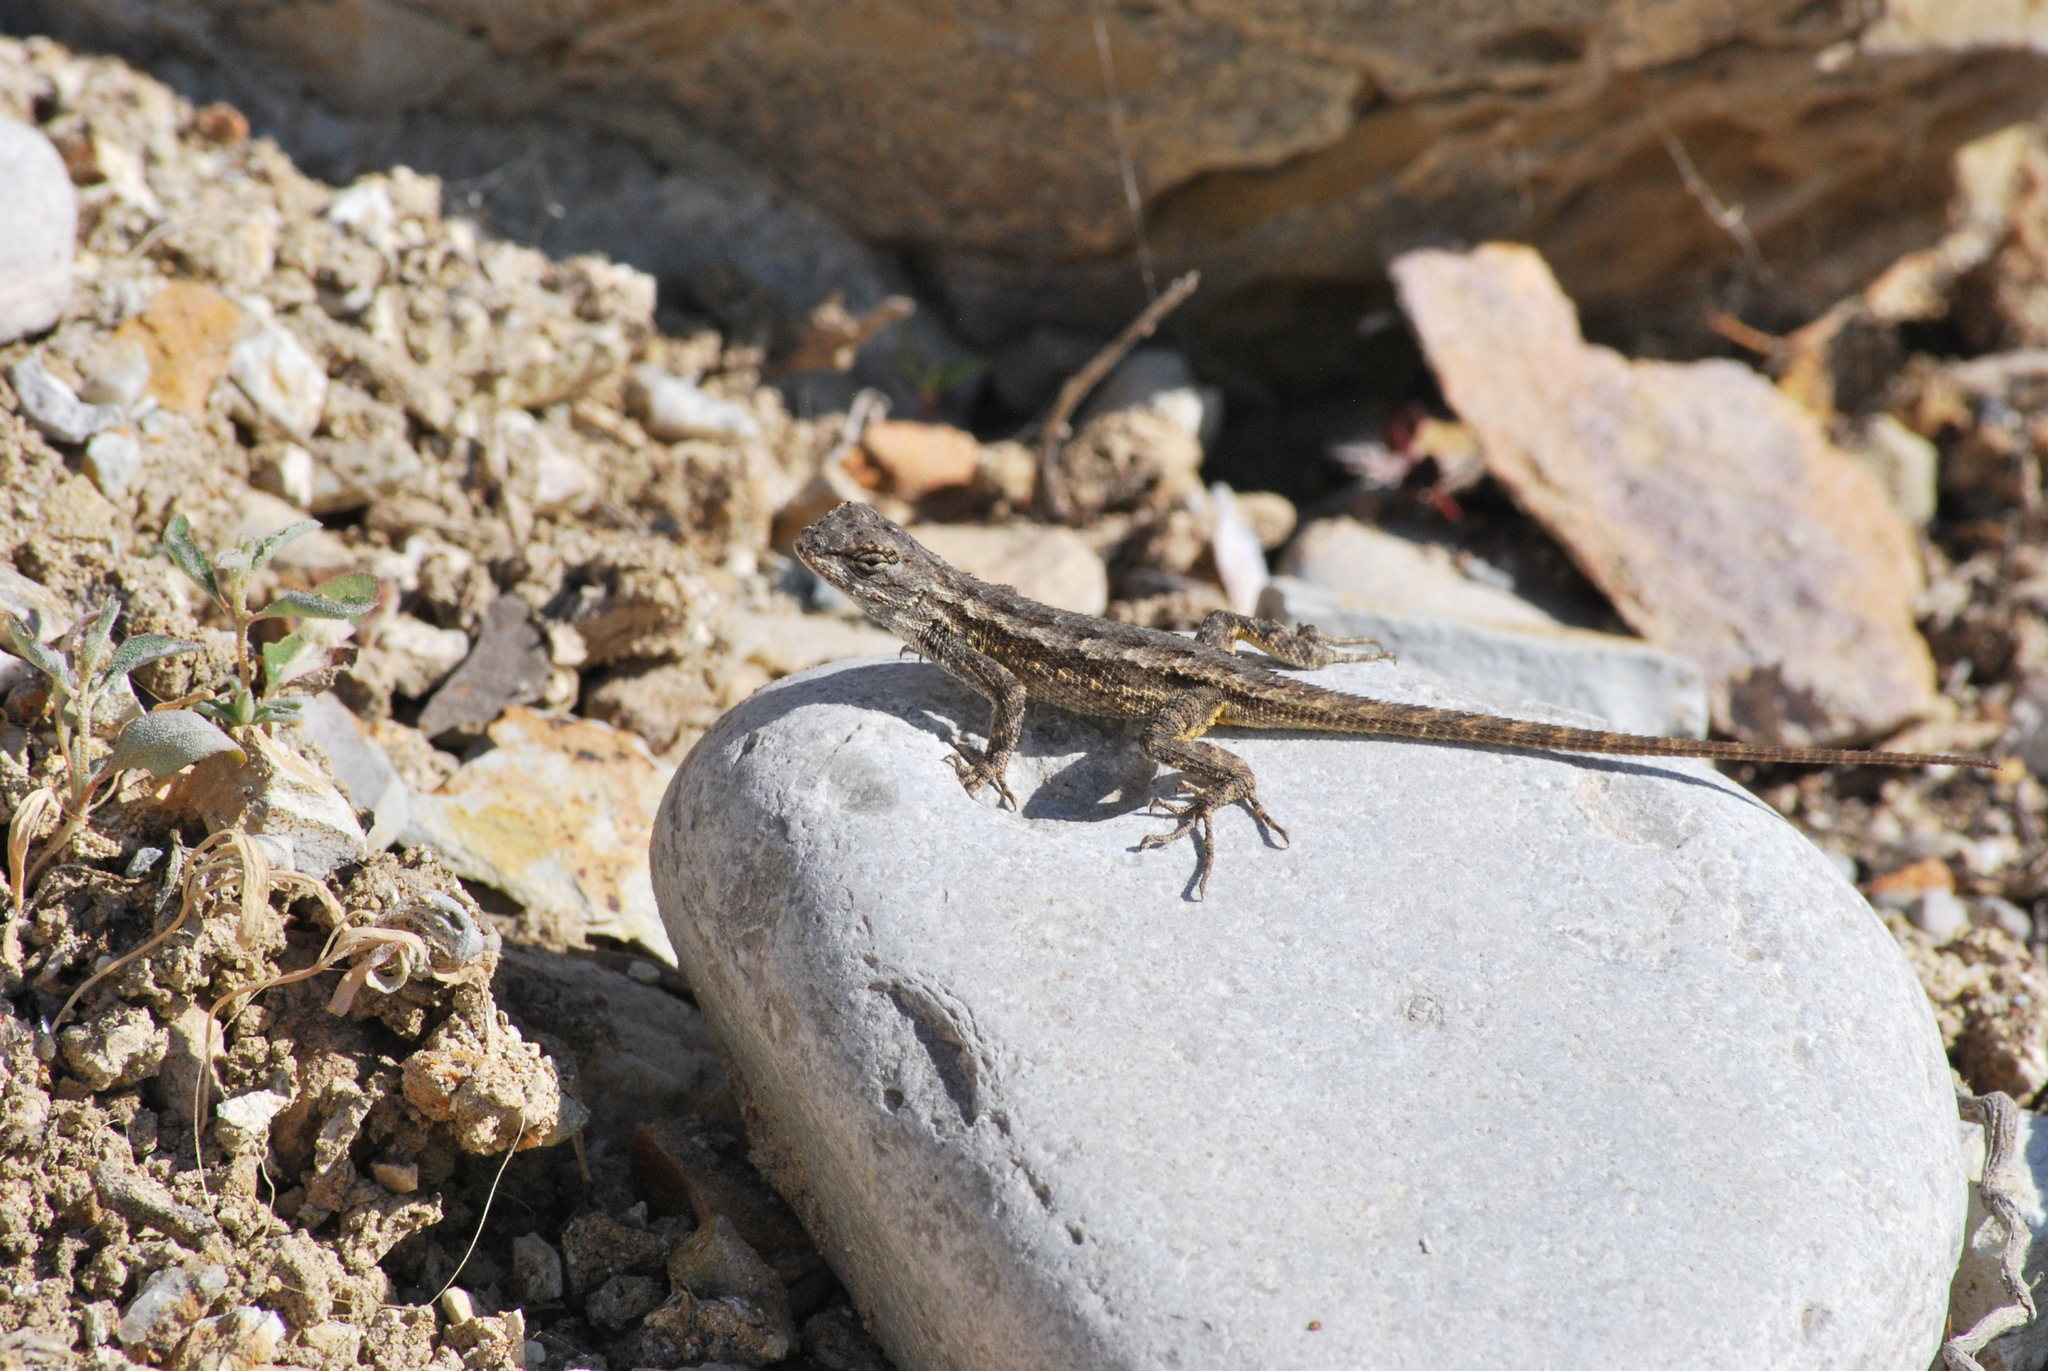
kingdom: Animalia
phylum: Chordata
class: Squamata
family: Phrynosomatidae
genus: Sceloporus
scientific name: Sceloporus occidentalis
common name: Western fence lizard
